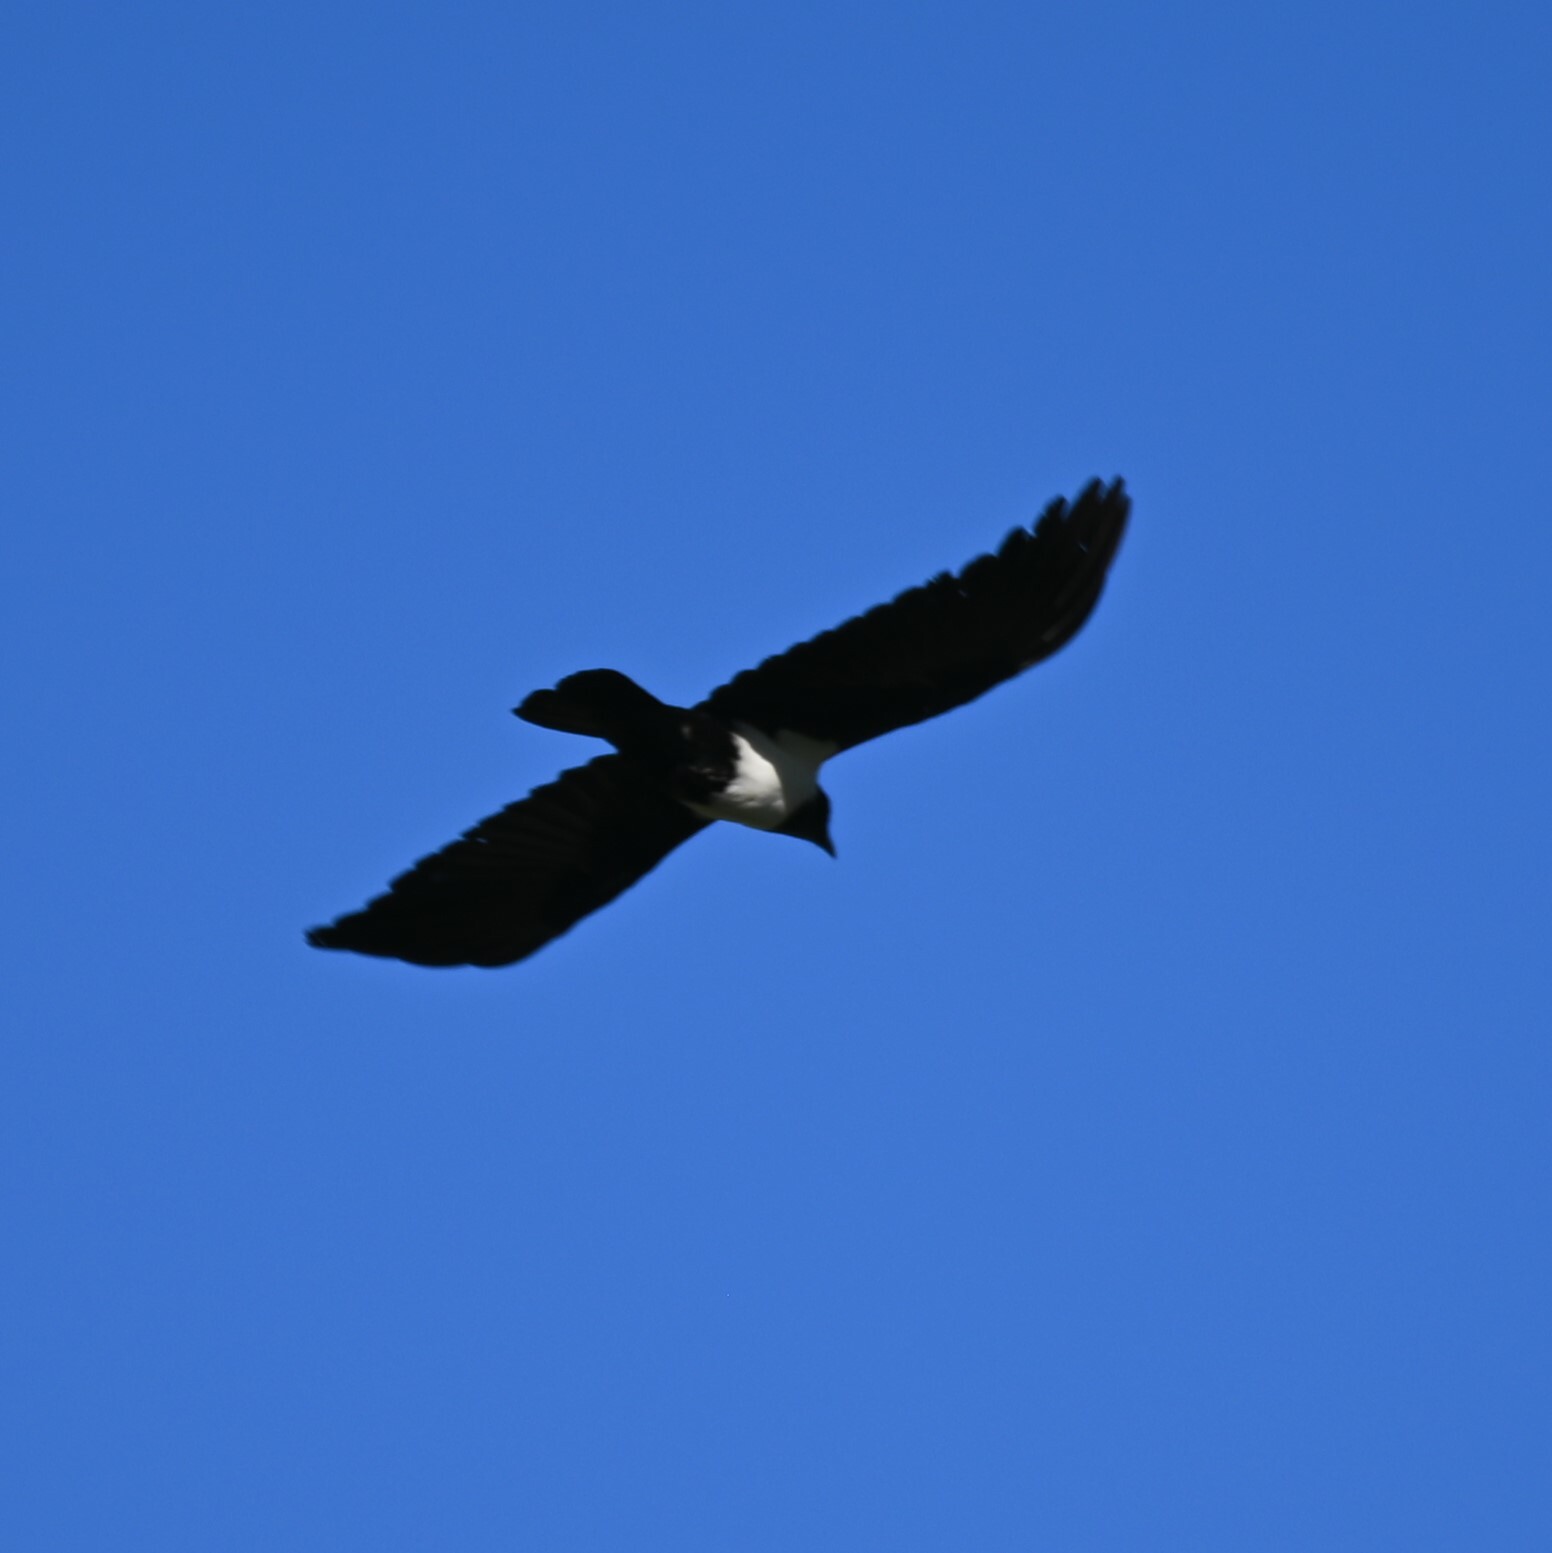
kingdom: Animalia
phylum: Chordata
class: Aves
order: Passeriformes
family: Corvidae
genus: Corvus
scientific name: Corvus albus
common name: Pied crow
